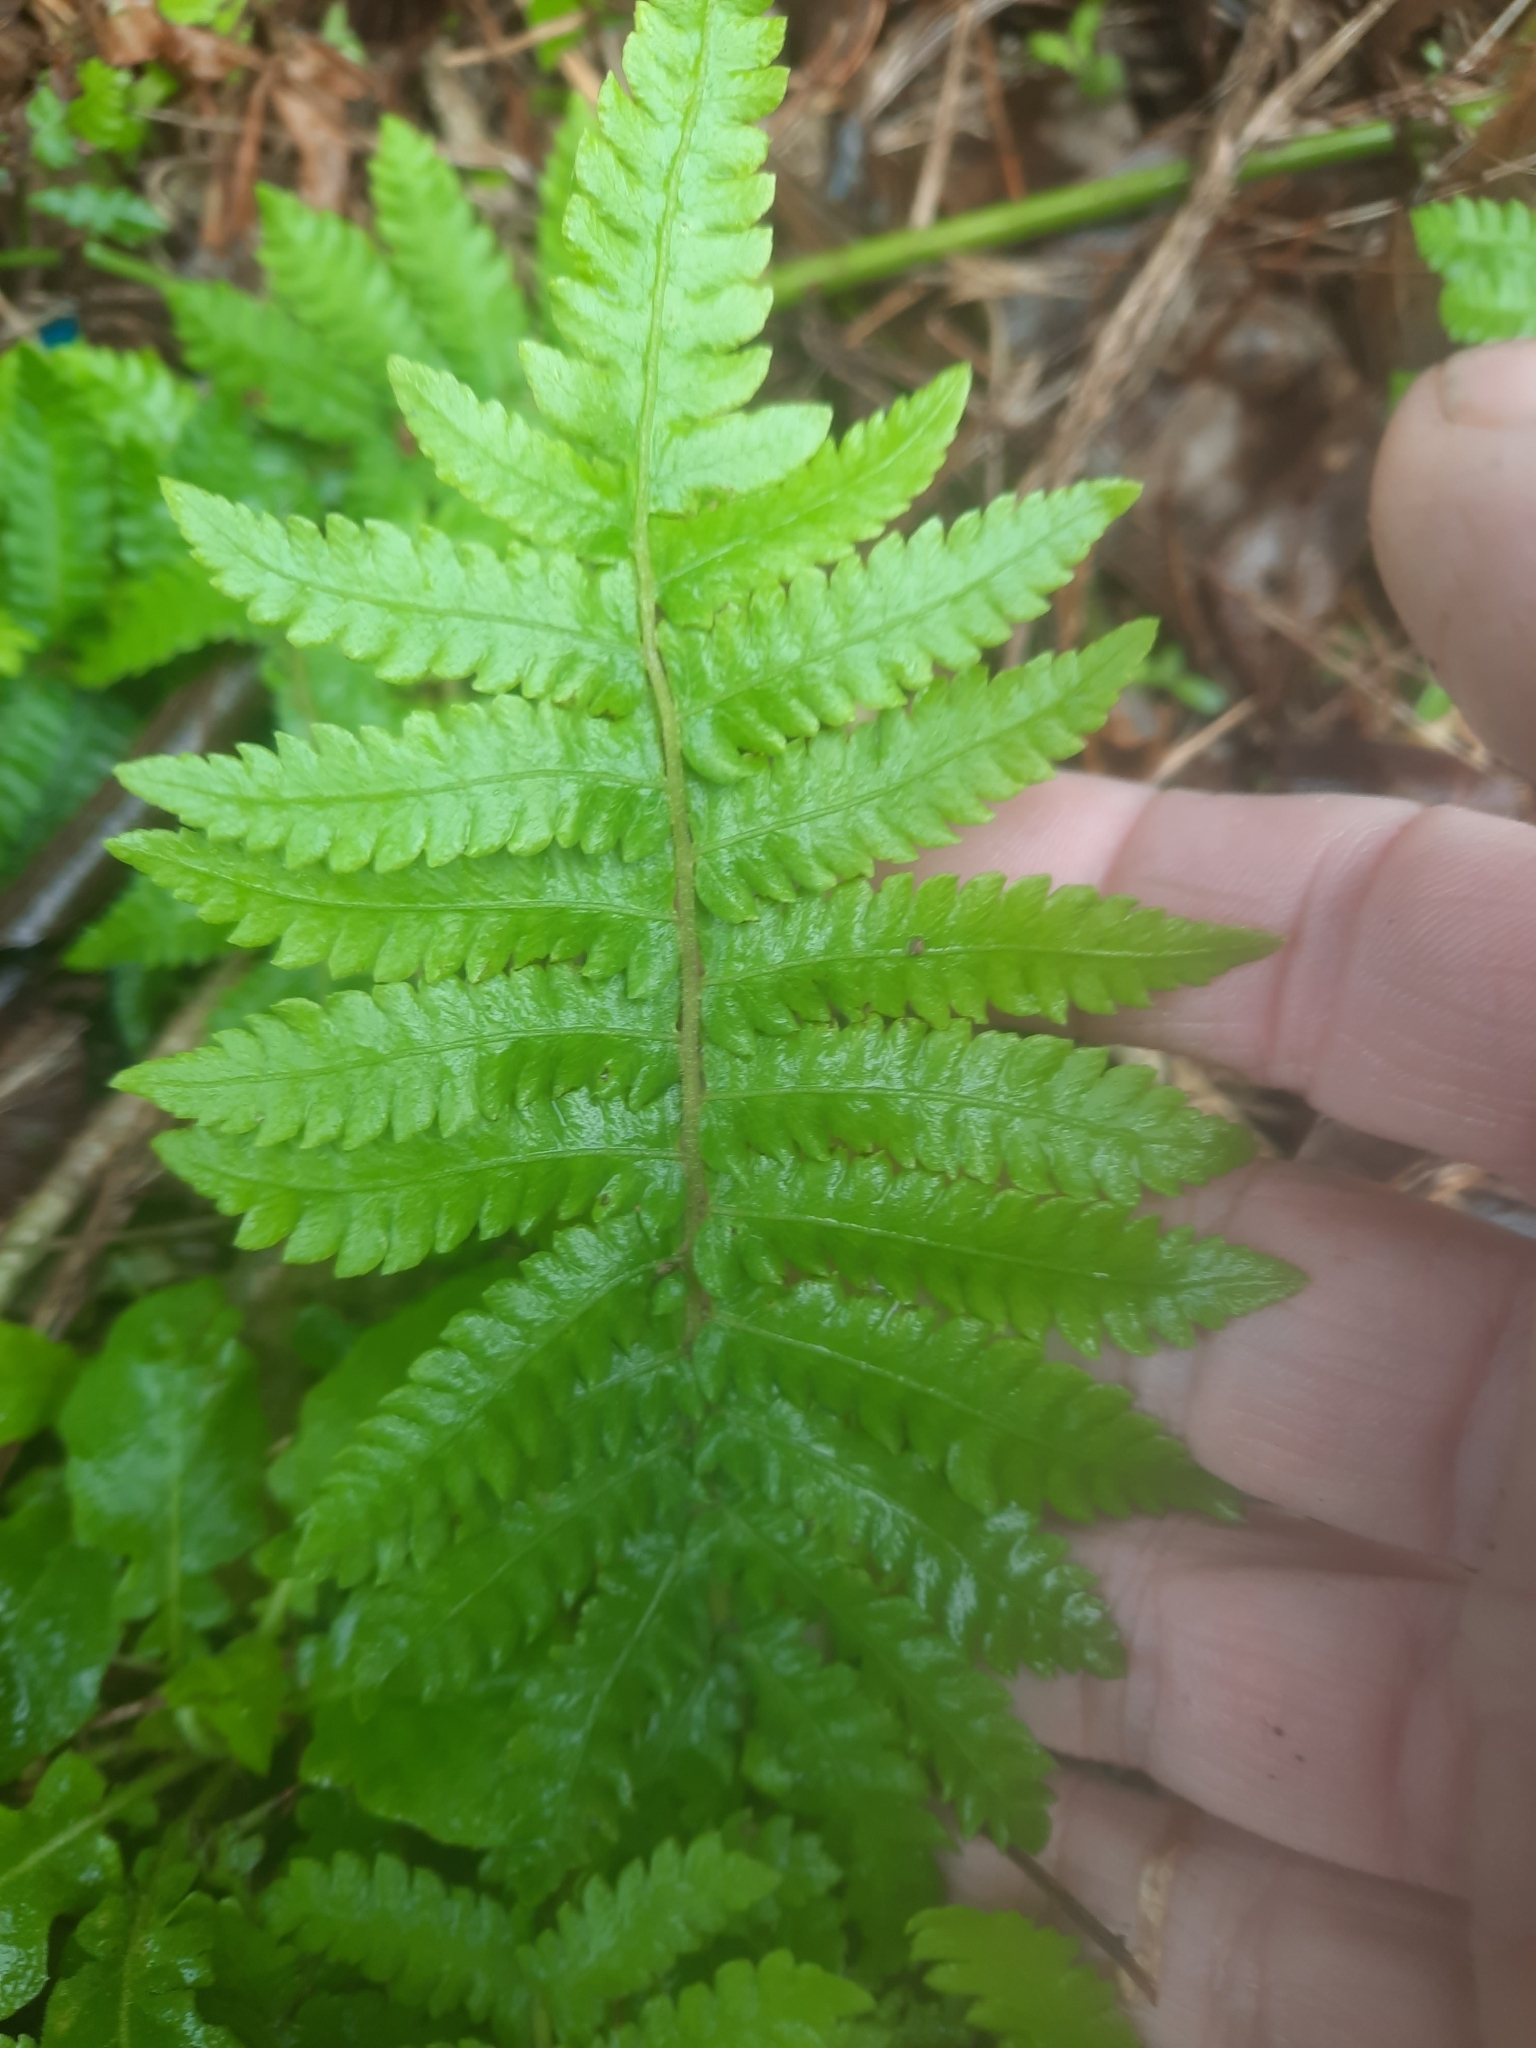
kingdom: Plantae
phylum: Tracheophyta
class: Polypodiopsida
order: Polypodiales
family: Thelypteridaceae
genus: Christella
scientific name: Christella acuminata
